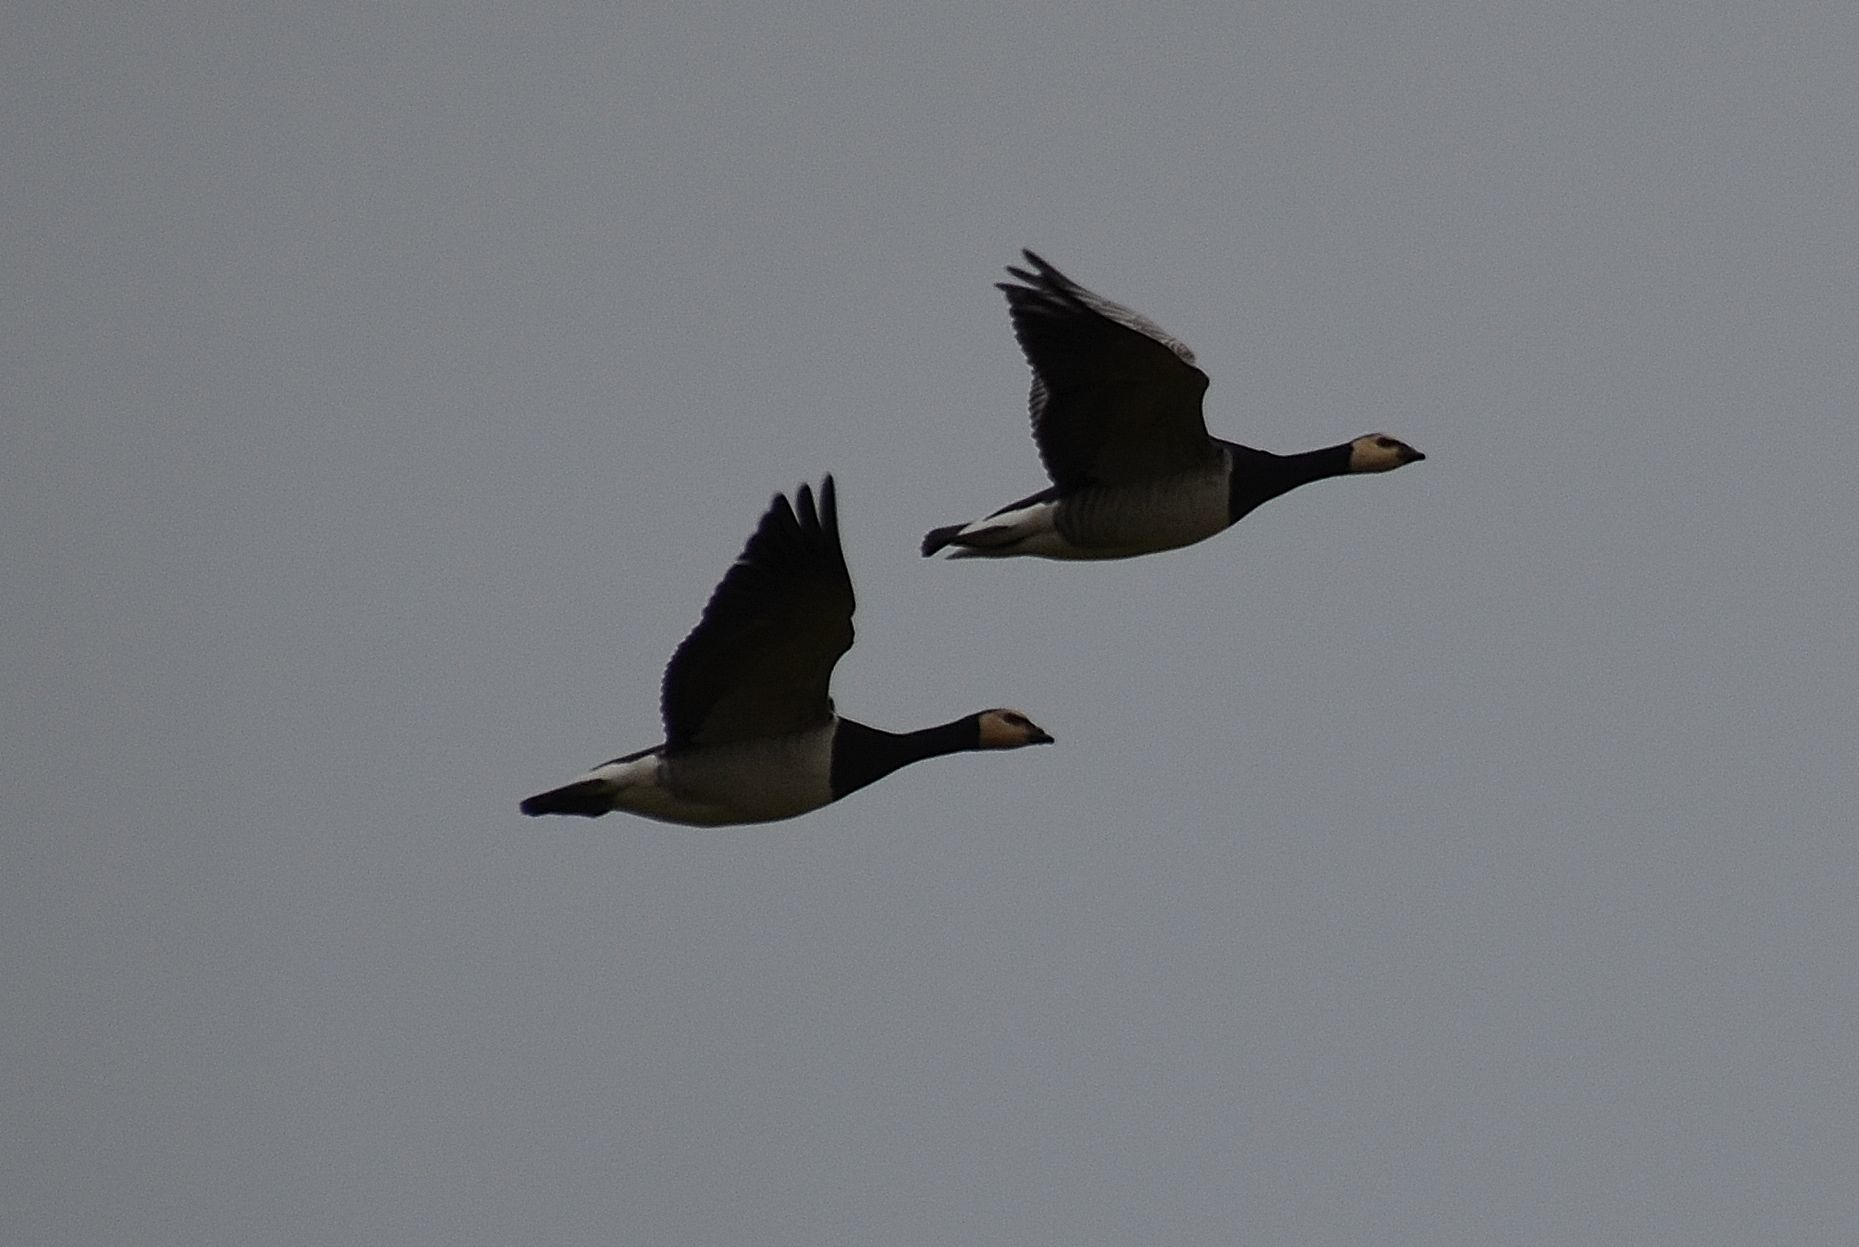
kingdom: Animalia
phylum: Chordata
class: Aves
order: Anseriformes
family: Anatidae
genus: Branta
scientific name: Branta leucopsis
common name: Barnacle goose
